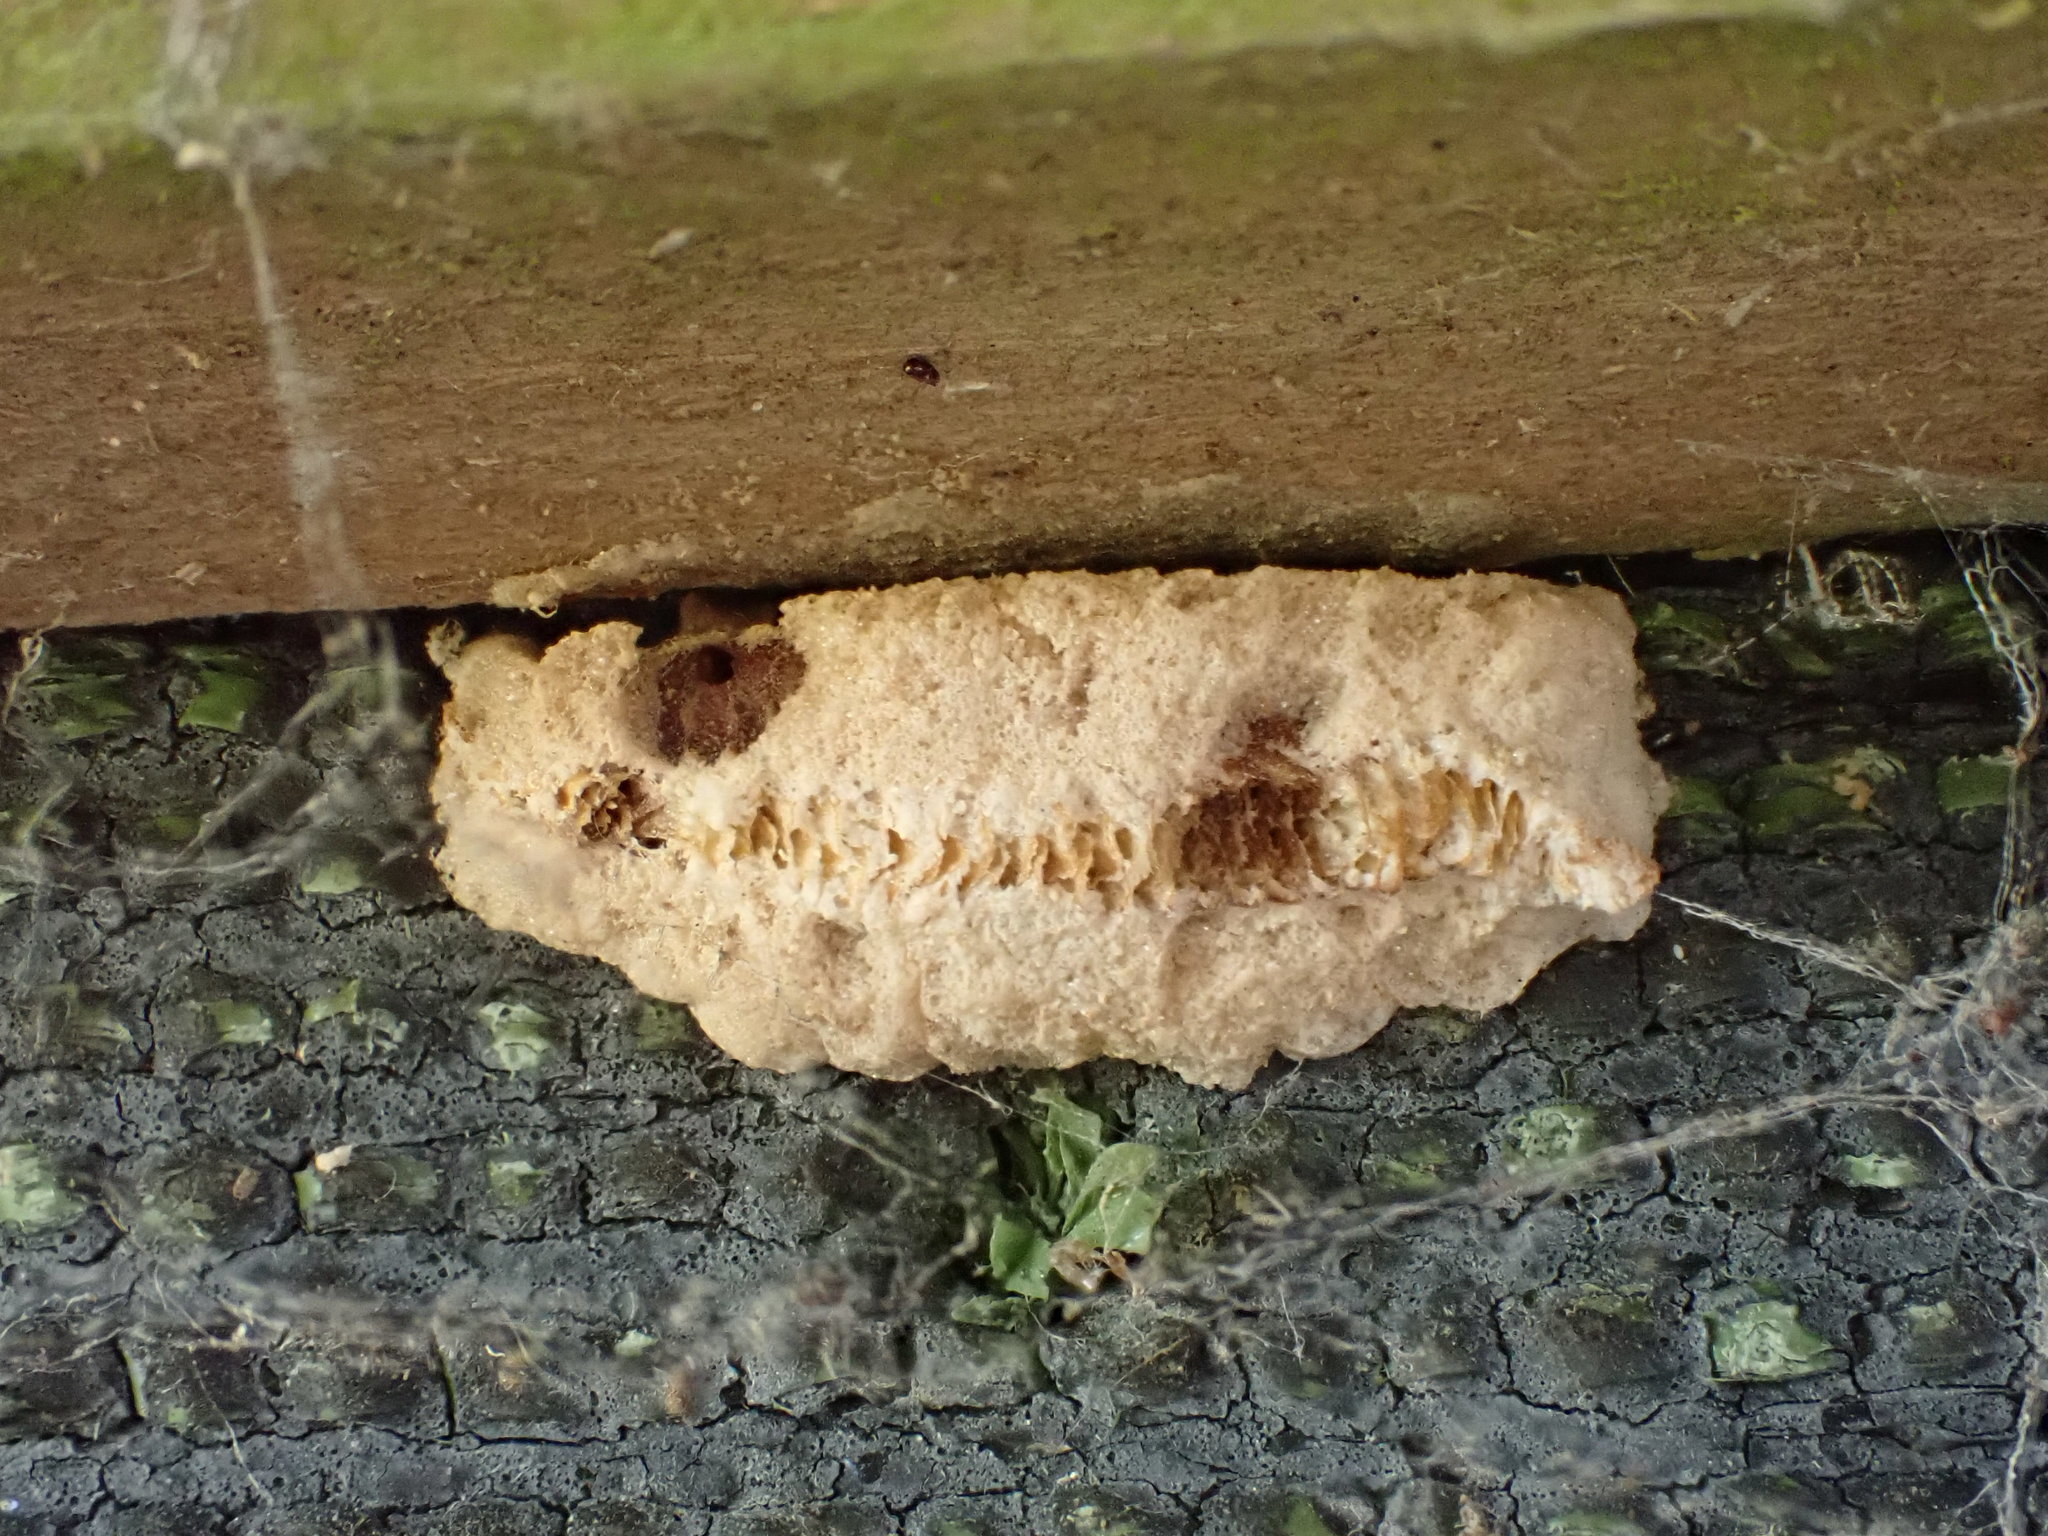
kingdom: Animalia
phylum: Arthropoda
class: Insecta
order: Mantodea
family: Miomantidae
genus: Miomantis
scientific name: Miomantis caffra
